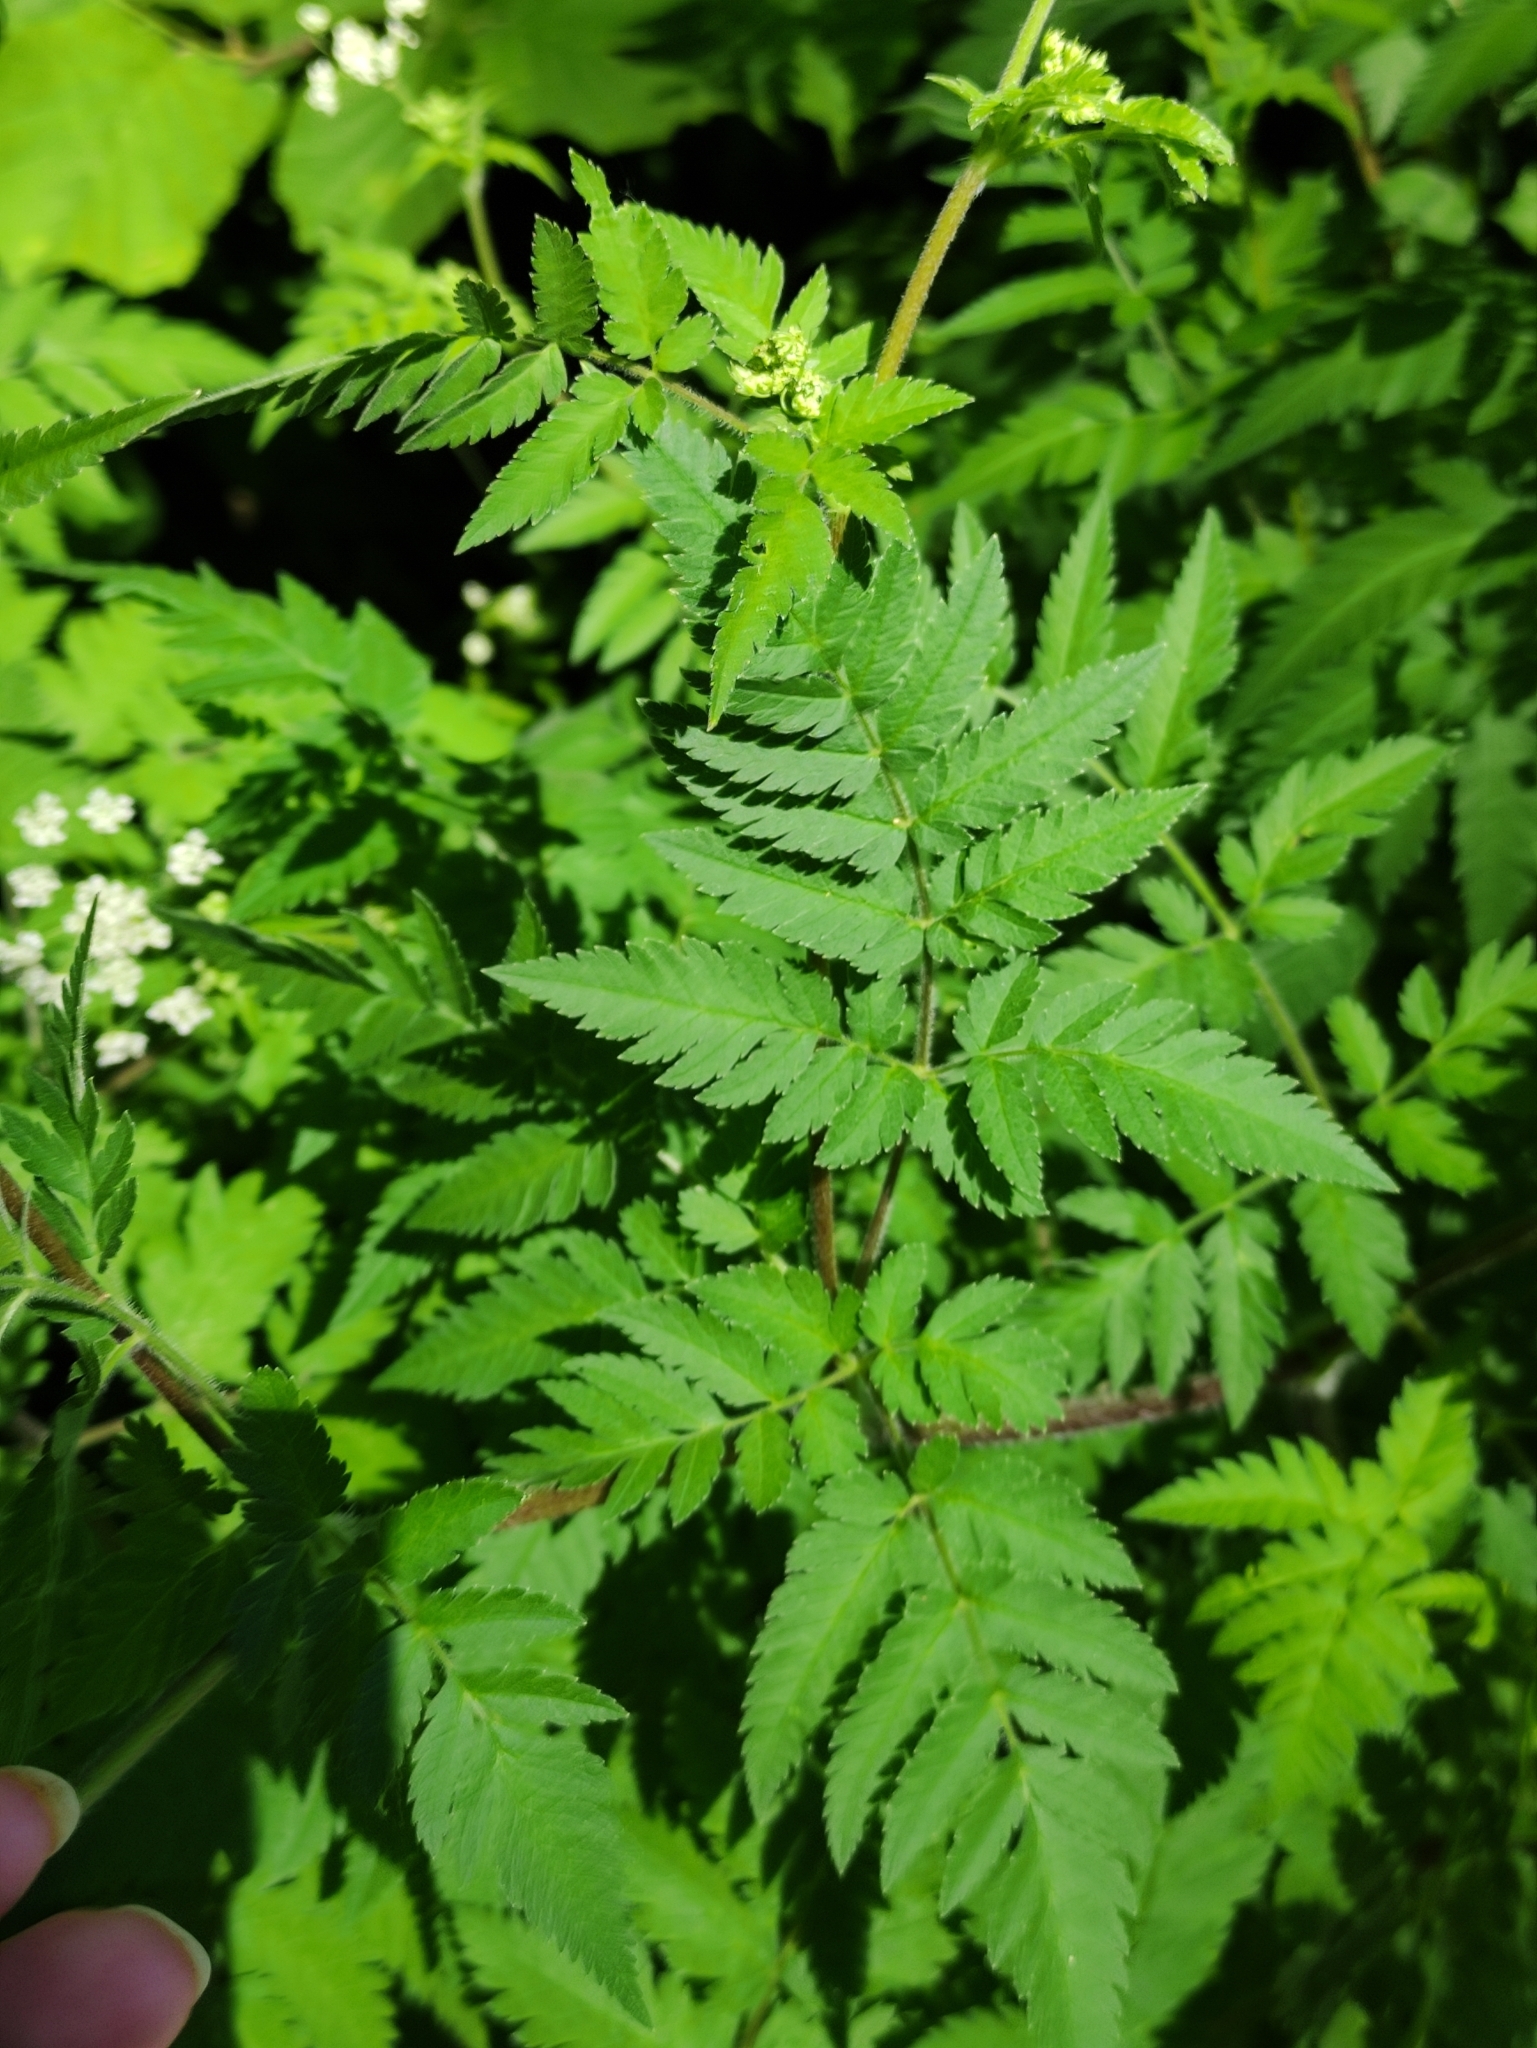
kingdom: Plantae
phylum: Tracheophyta
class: Magnoliopsida
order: Apiales
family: Apiaceae
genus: Chaerophyllum
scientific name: Chaerophyllum aureum
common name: Golden chervil
